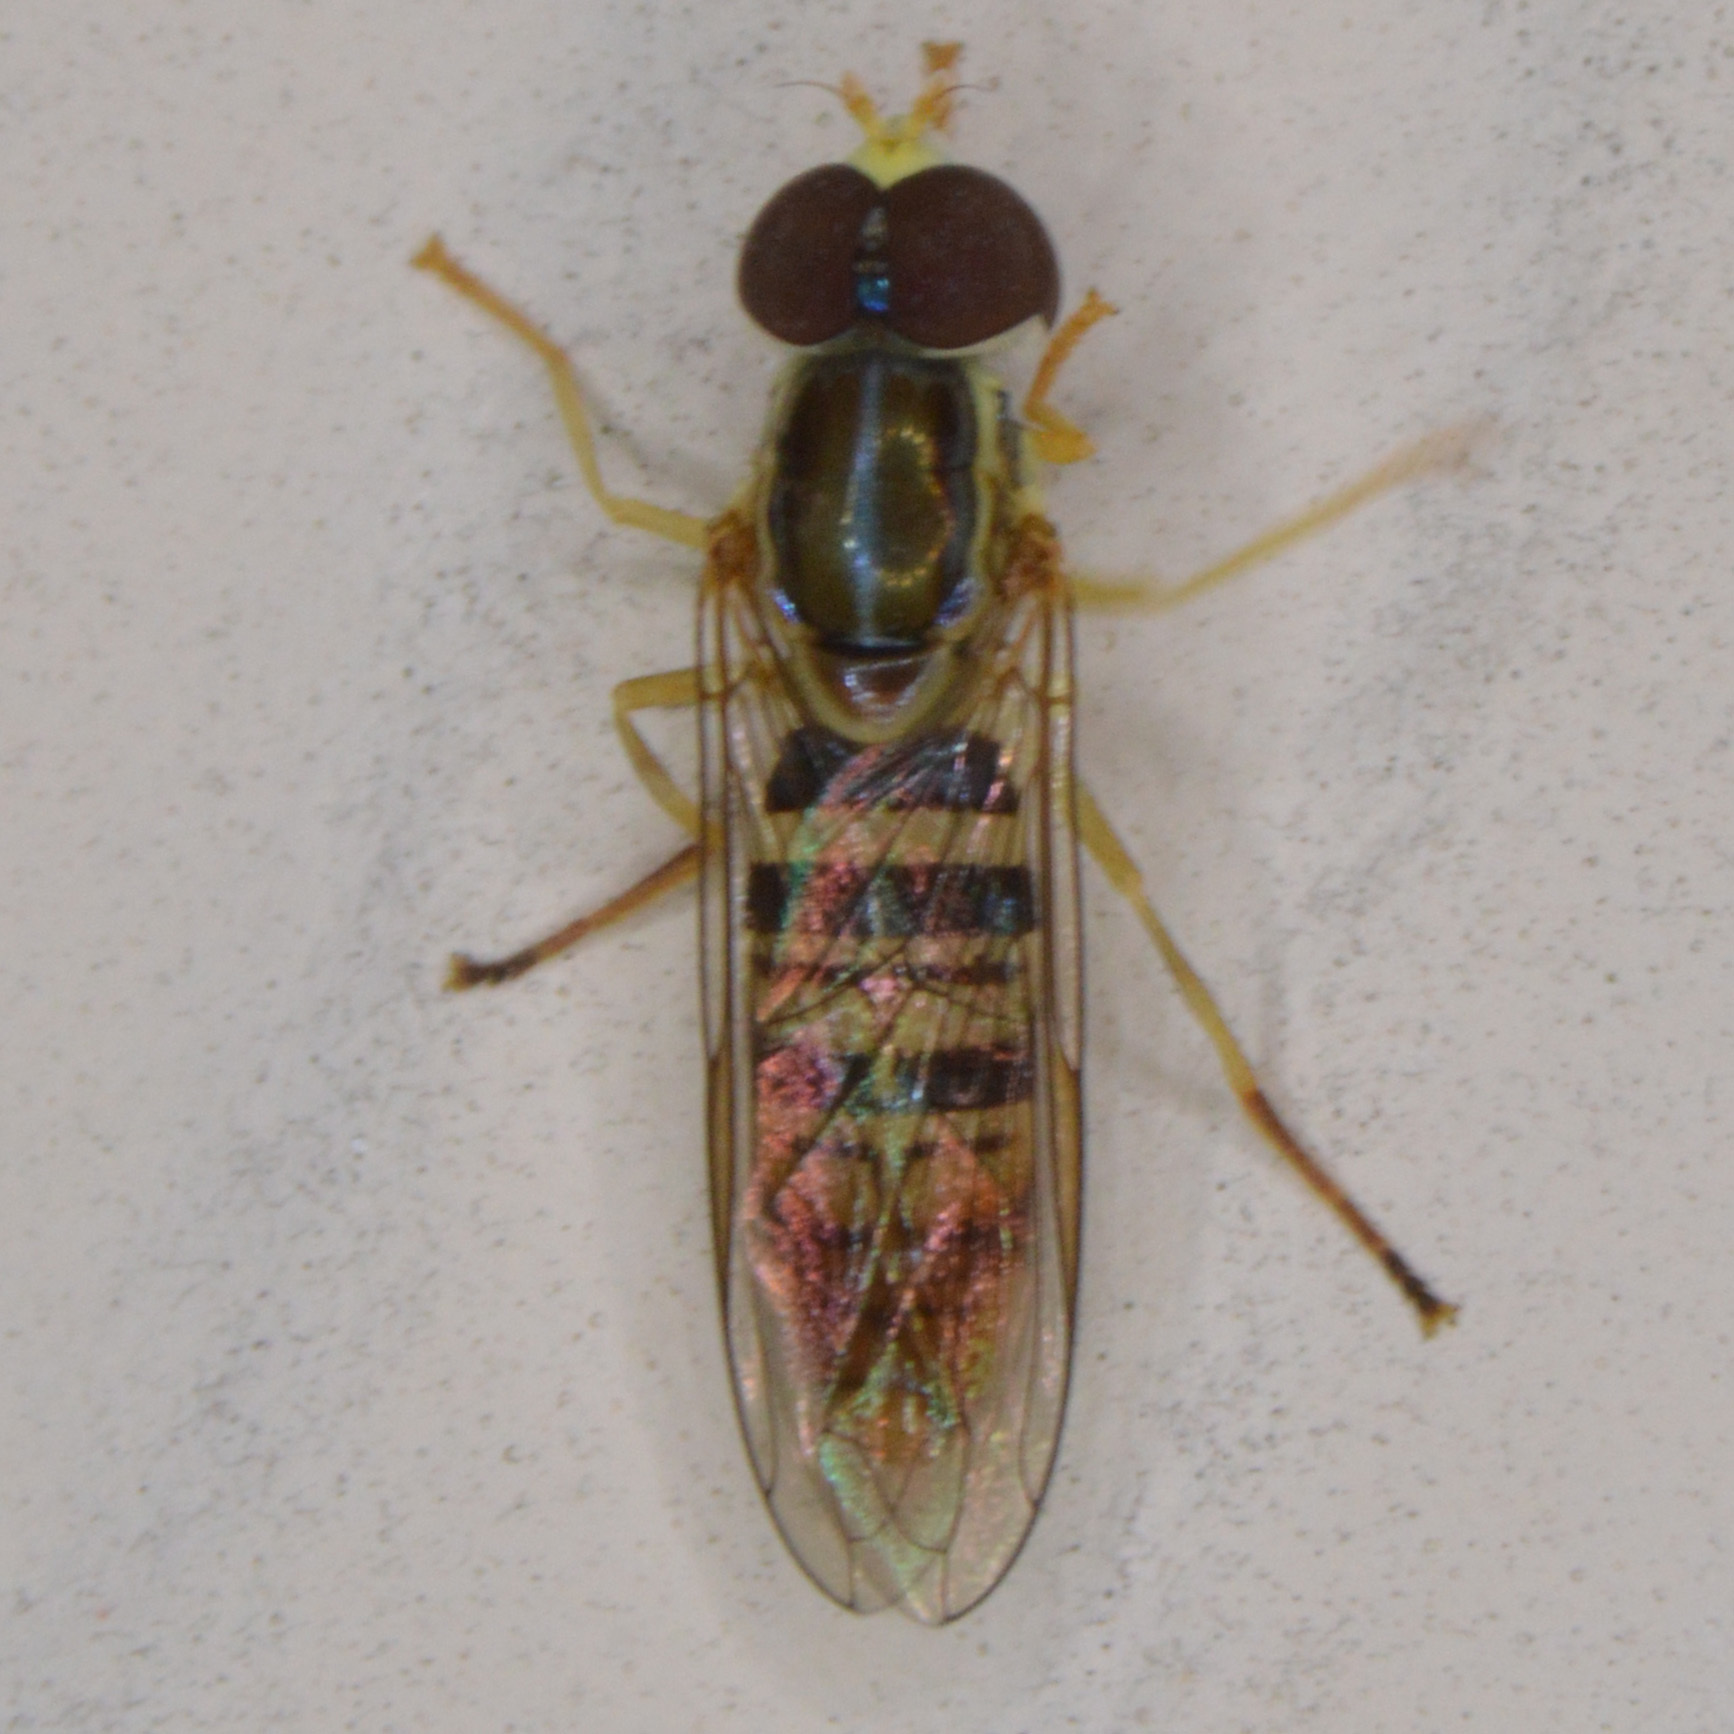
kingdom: Animalia
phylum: Arthropoda
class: Insecta
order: Diptera
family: Syrphidae
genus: Toxomerus
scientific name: Toxomerus politus
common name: Maize calligrapher
